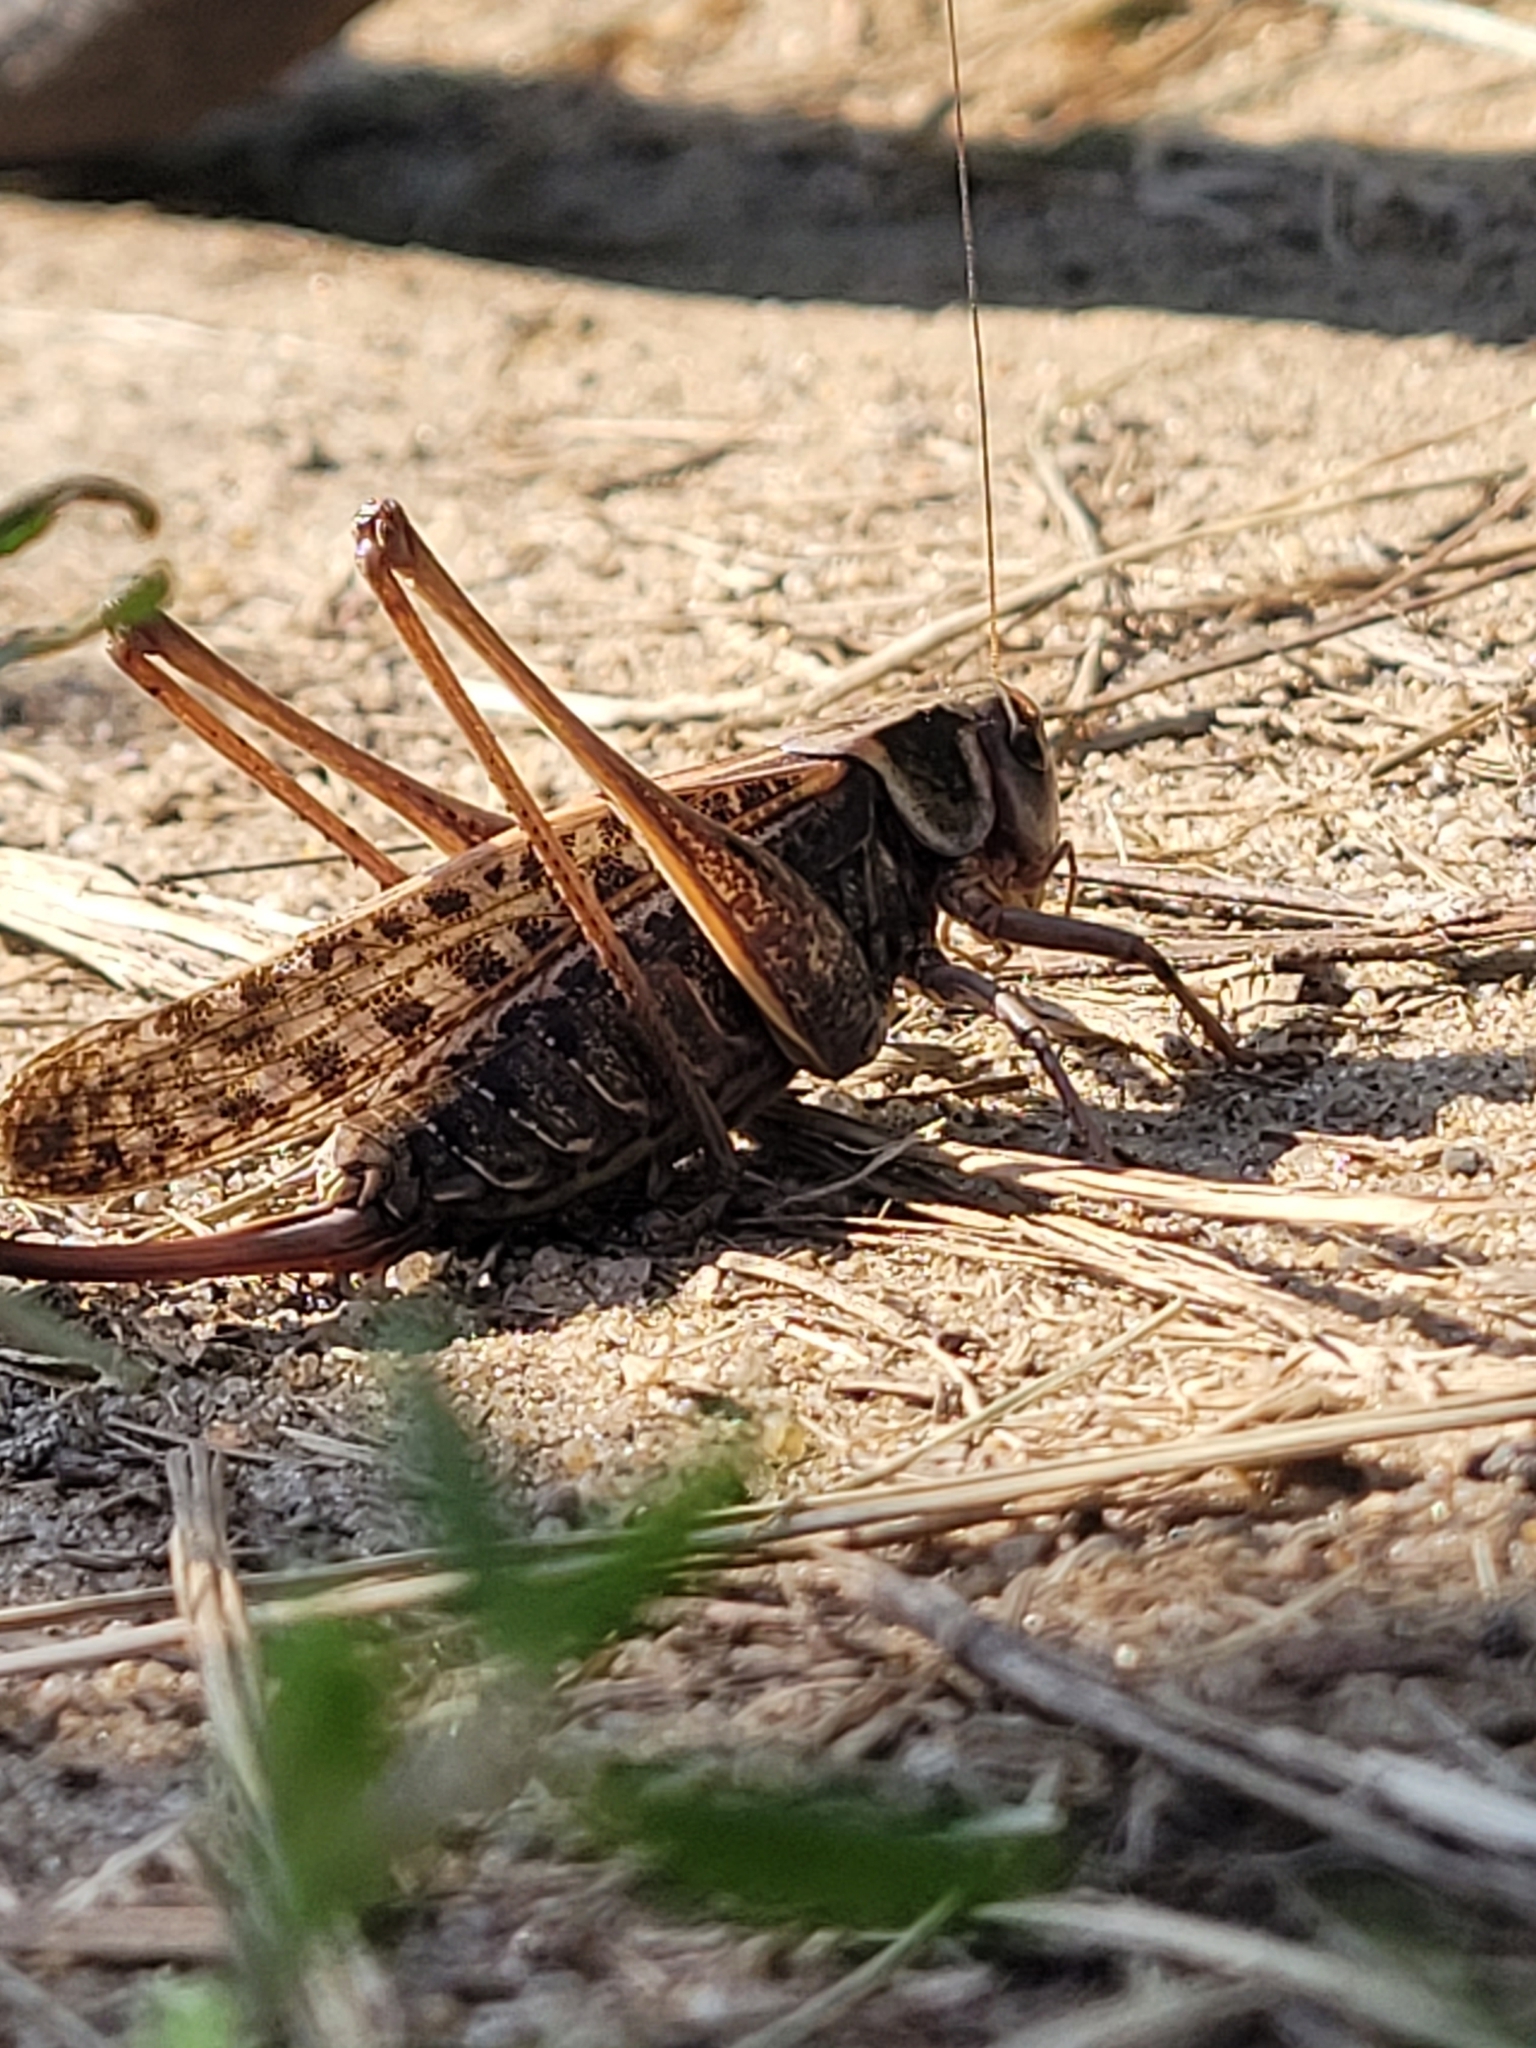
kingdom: Animalia
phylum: Arthropoda
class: Insecta
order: Orthoptera
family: Tettigoniidae
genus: Decticus
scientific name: Decticus verrucivorus
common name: Wart-biter
